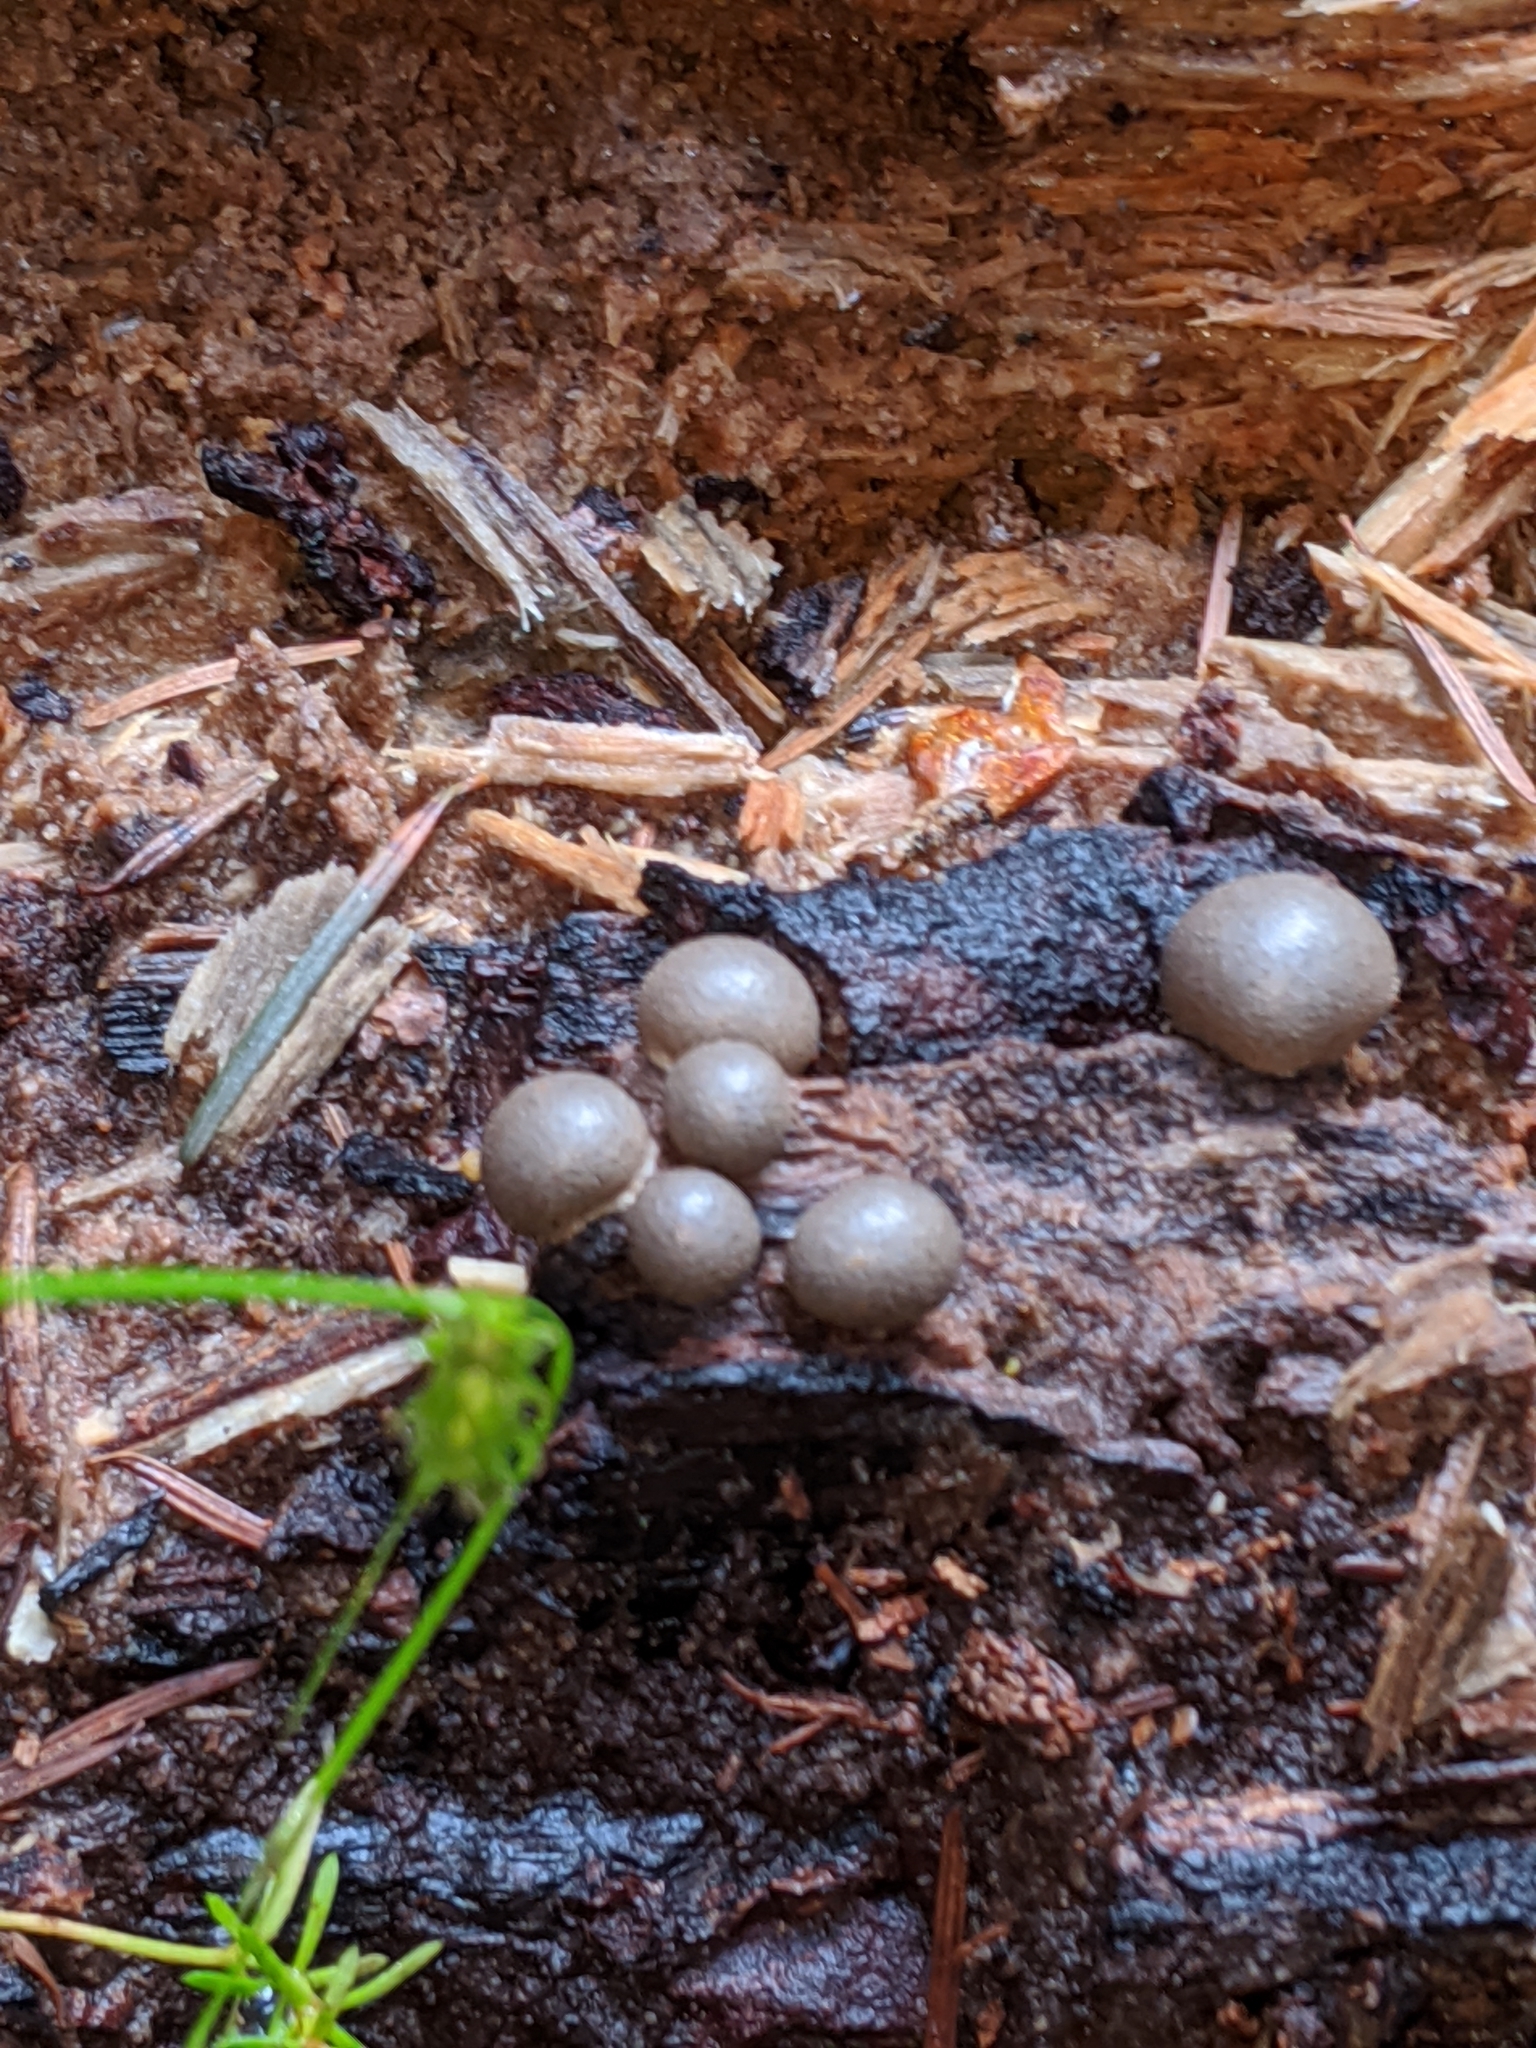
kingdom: Protozoa
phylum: Mycetozoa
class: Myxomycetes
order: Cribrariales
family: Tubiferaceae
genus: Lycogala
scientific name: Lycogala epidendrum
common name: Wolf's milk
